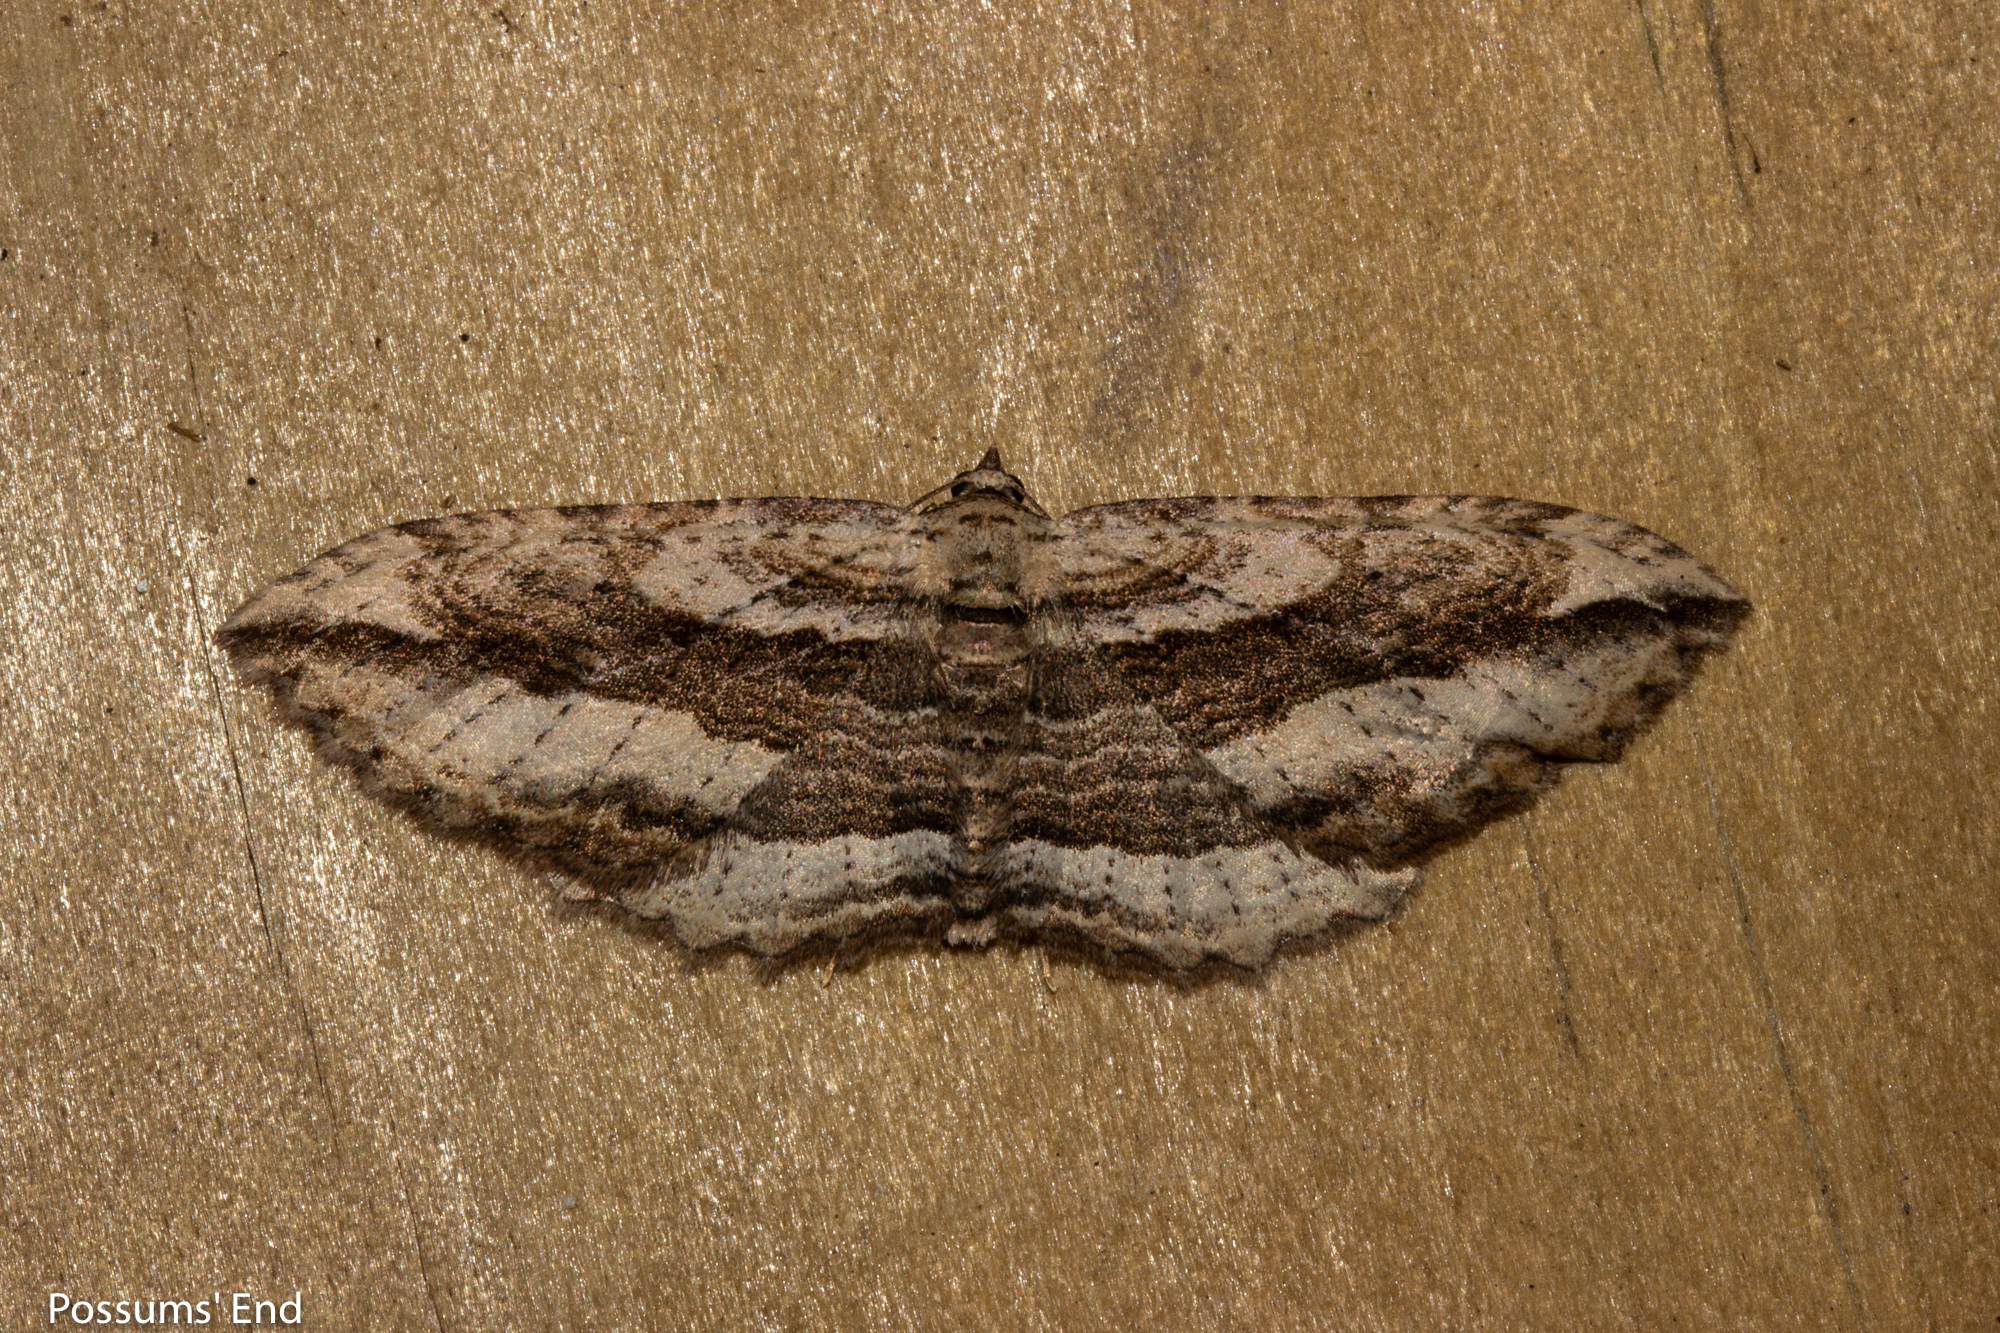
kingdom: Animalia
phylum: Arthropoda
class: Insecta
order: Lepidoptera
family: Geometridae
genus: Austrocidaria
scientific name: Austrocidaria gobiata
